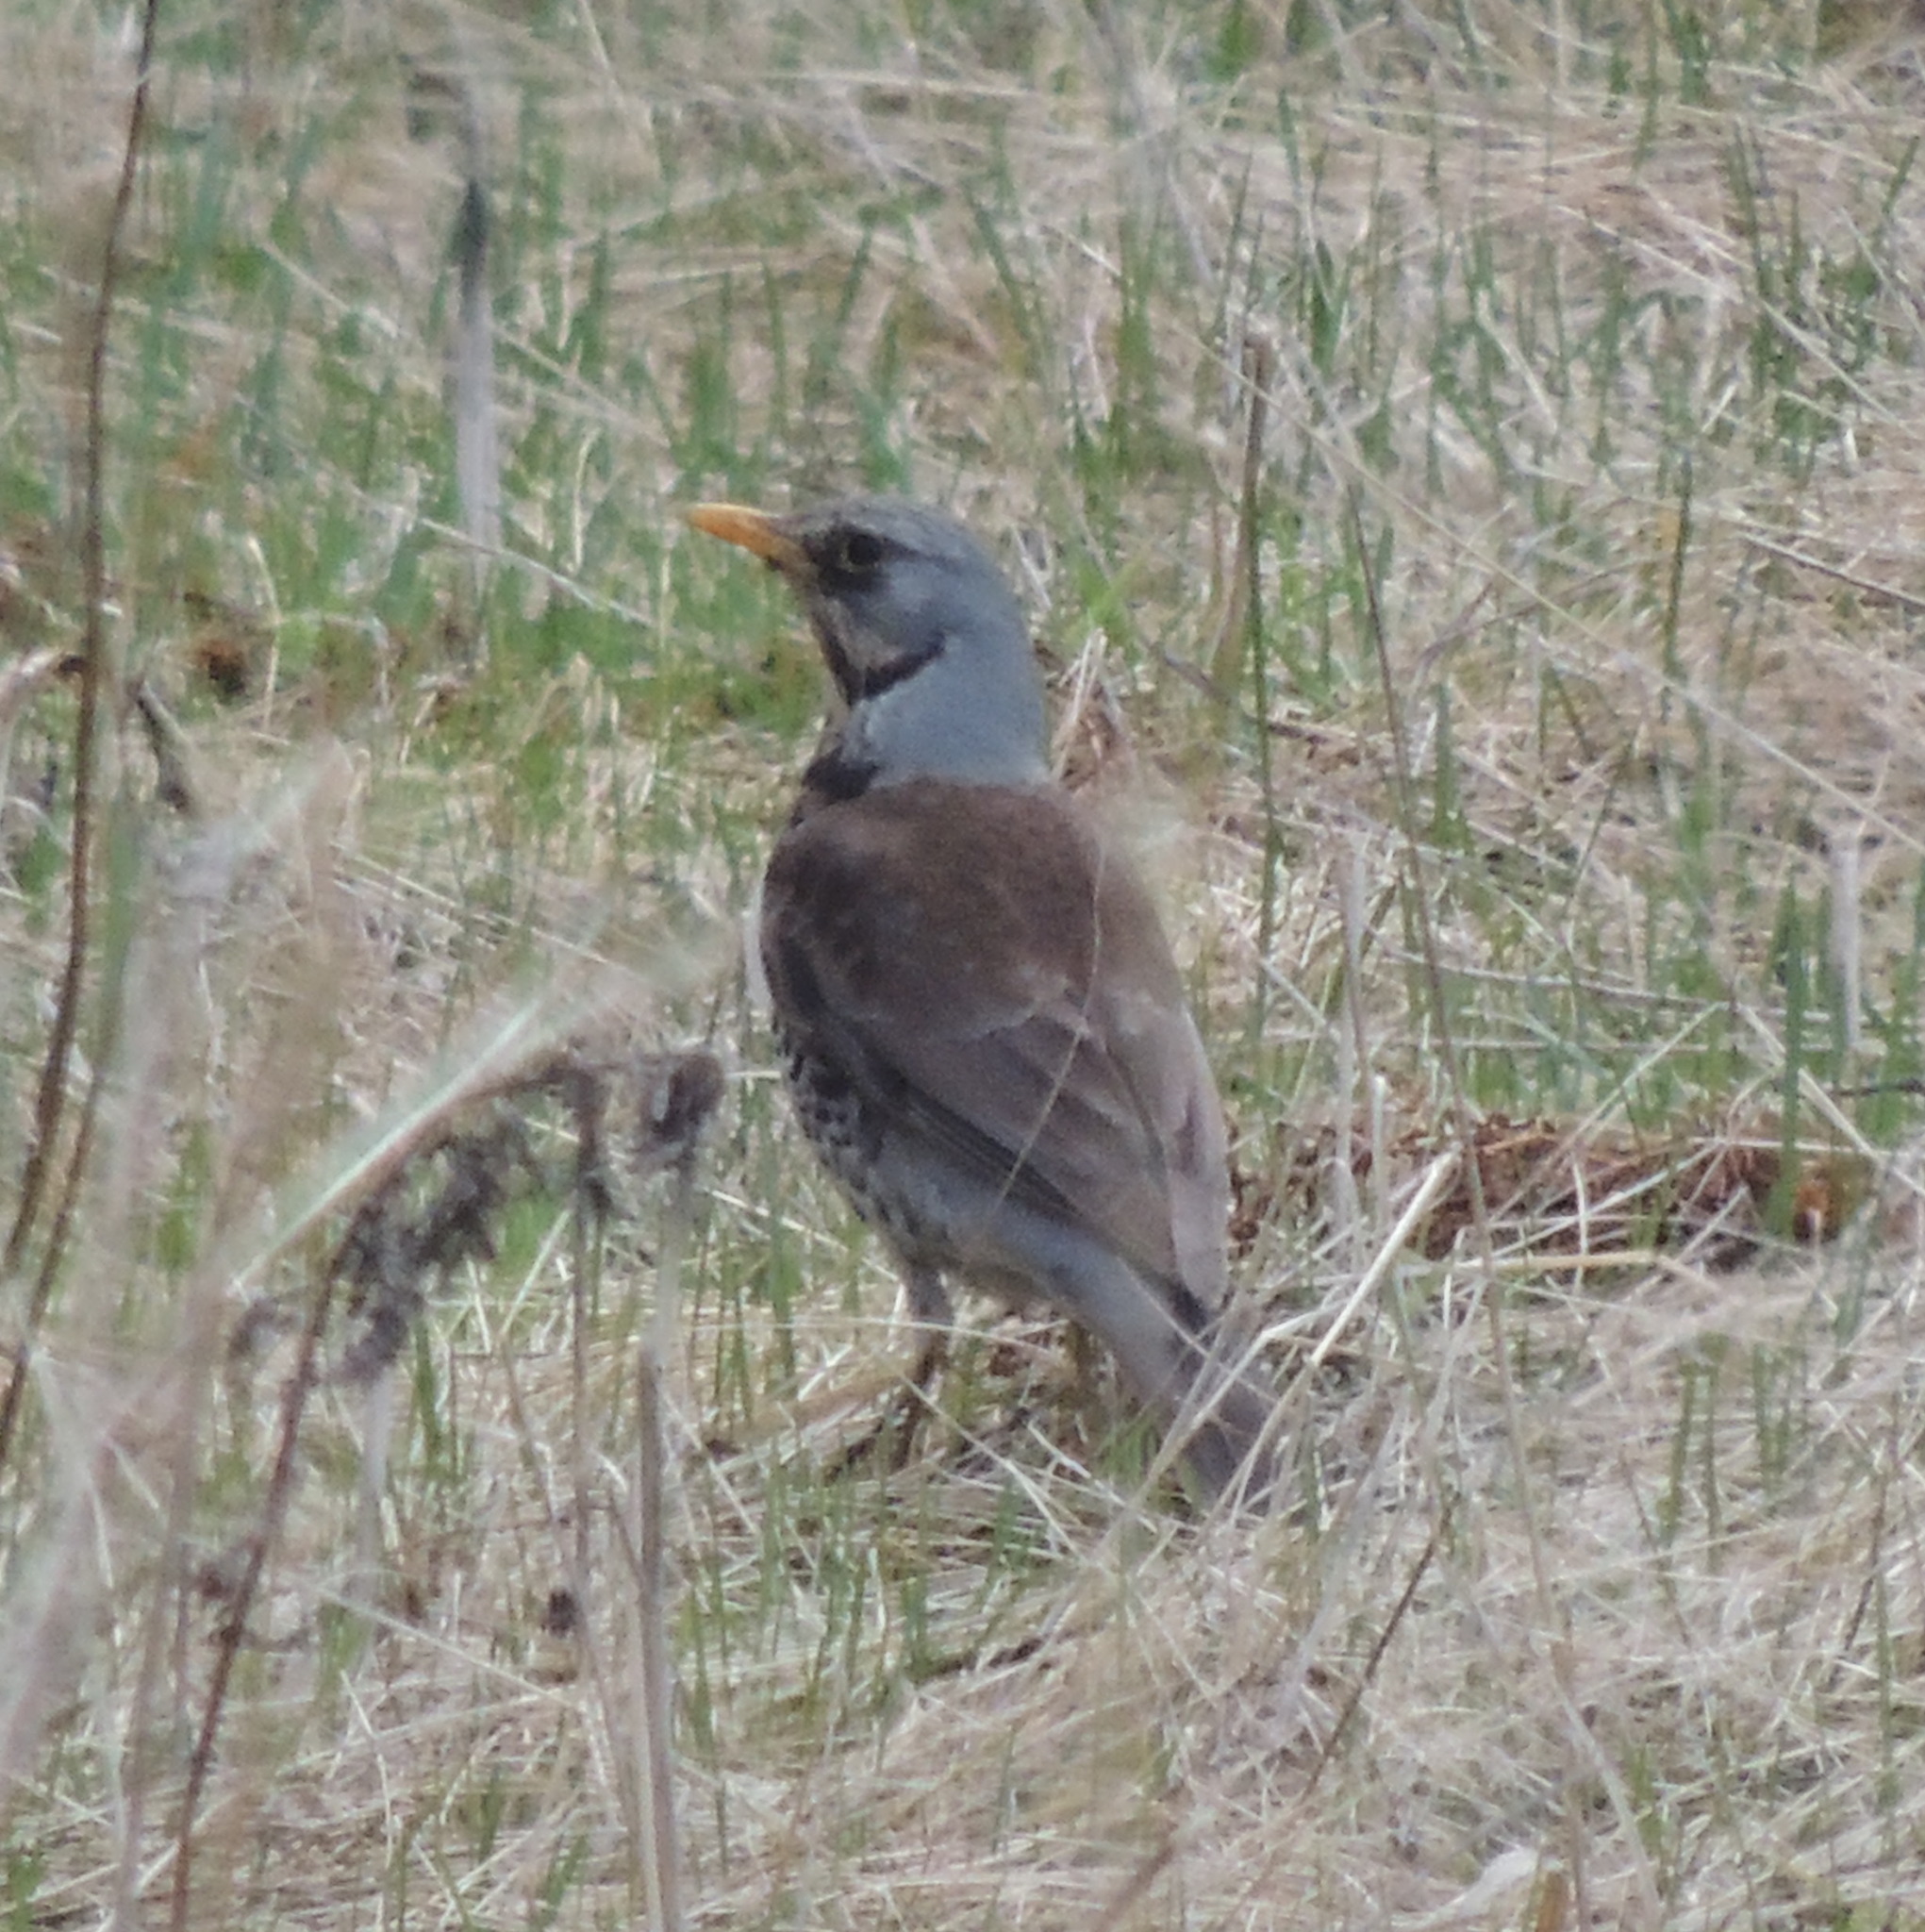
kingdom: Animalia
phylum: Chordata
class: Aves
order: Passeriformes
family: Turdidae
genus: Turdus
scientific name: Turdus pilaris
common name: Fieldfare
